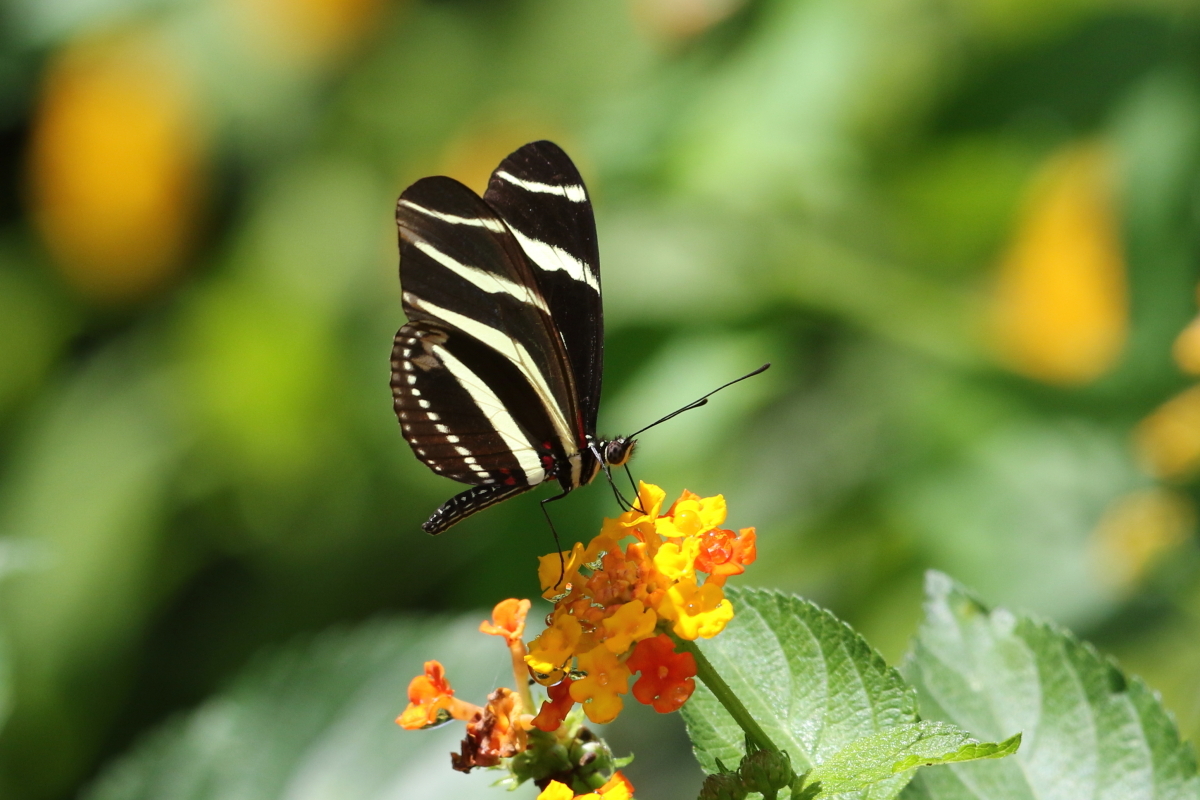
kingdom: Animalia
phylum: Arthropoda
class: Insecta
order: Lepidoptera
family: Nymphalidae
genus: Heliconius
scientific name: Heliconius charithonia
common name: Zebra long wing
